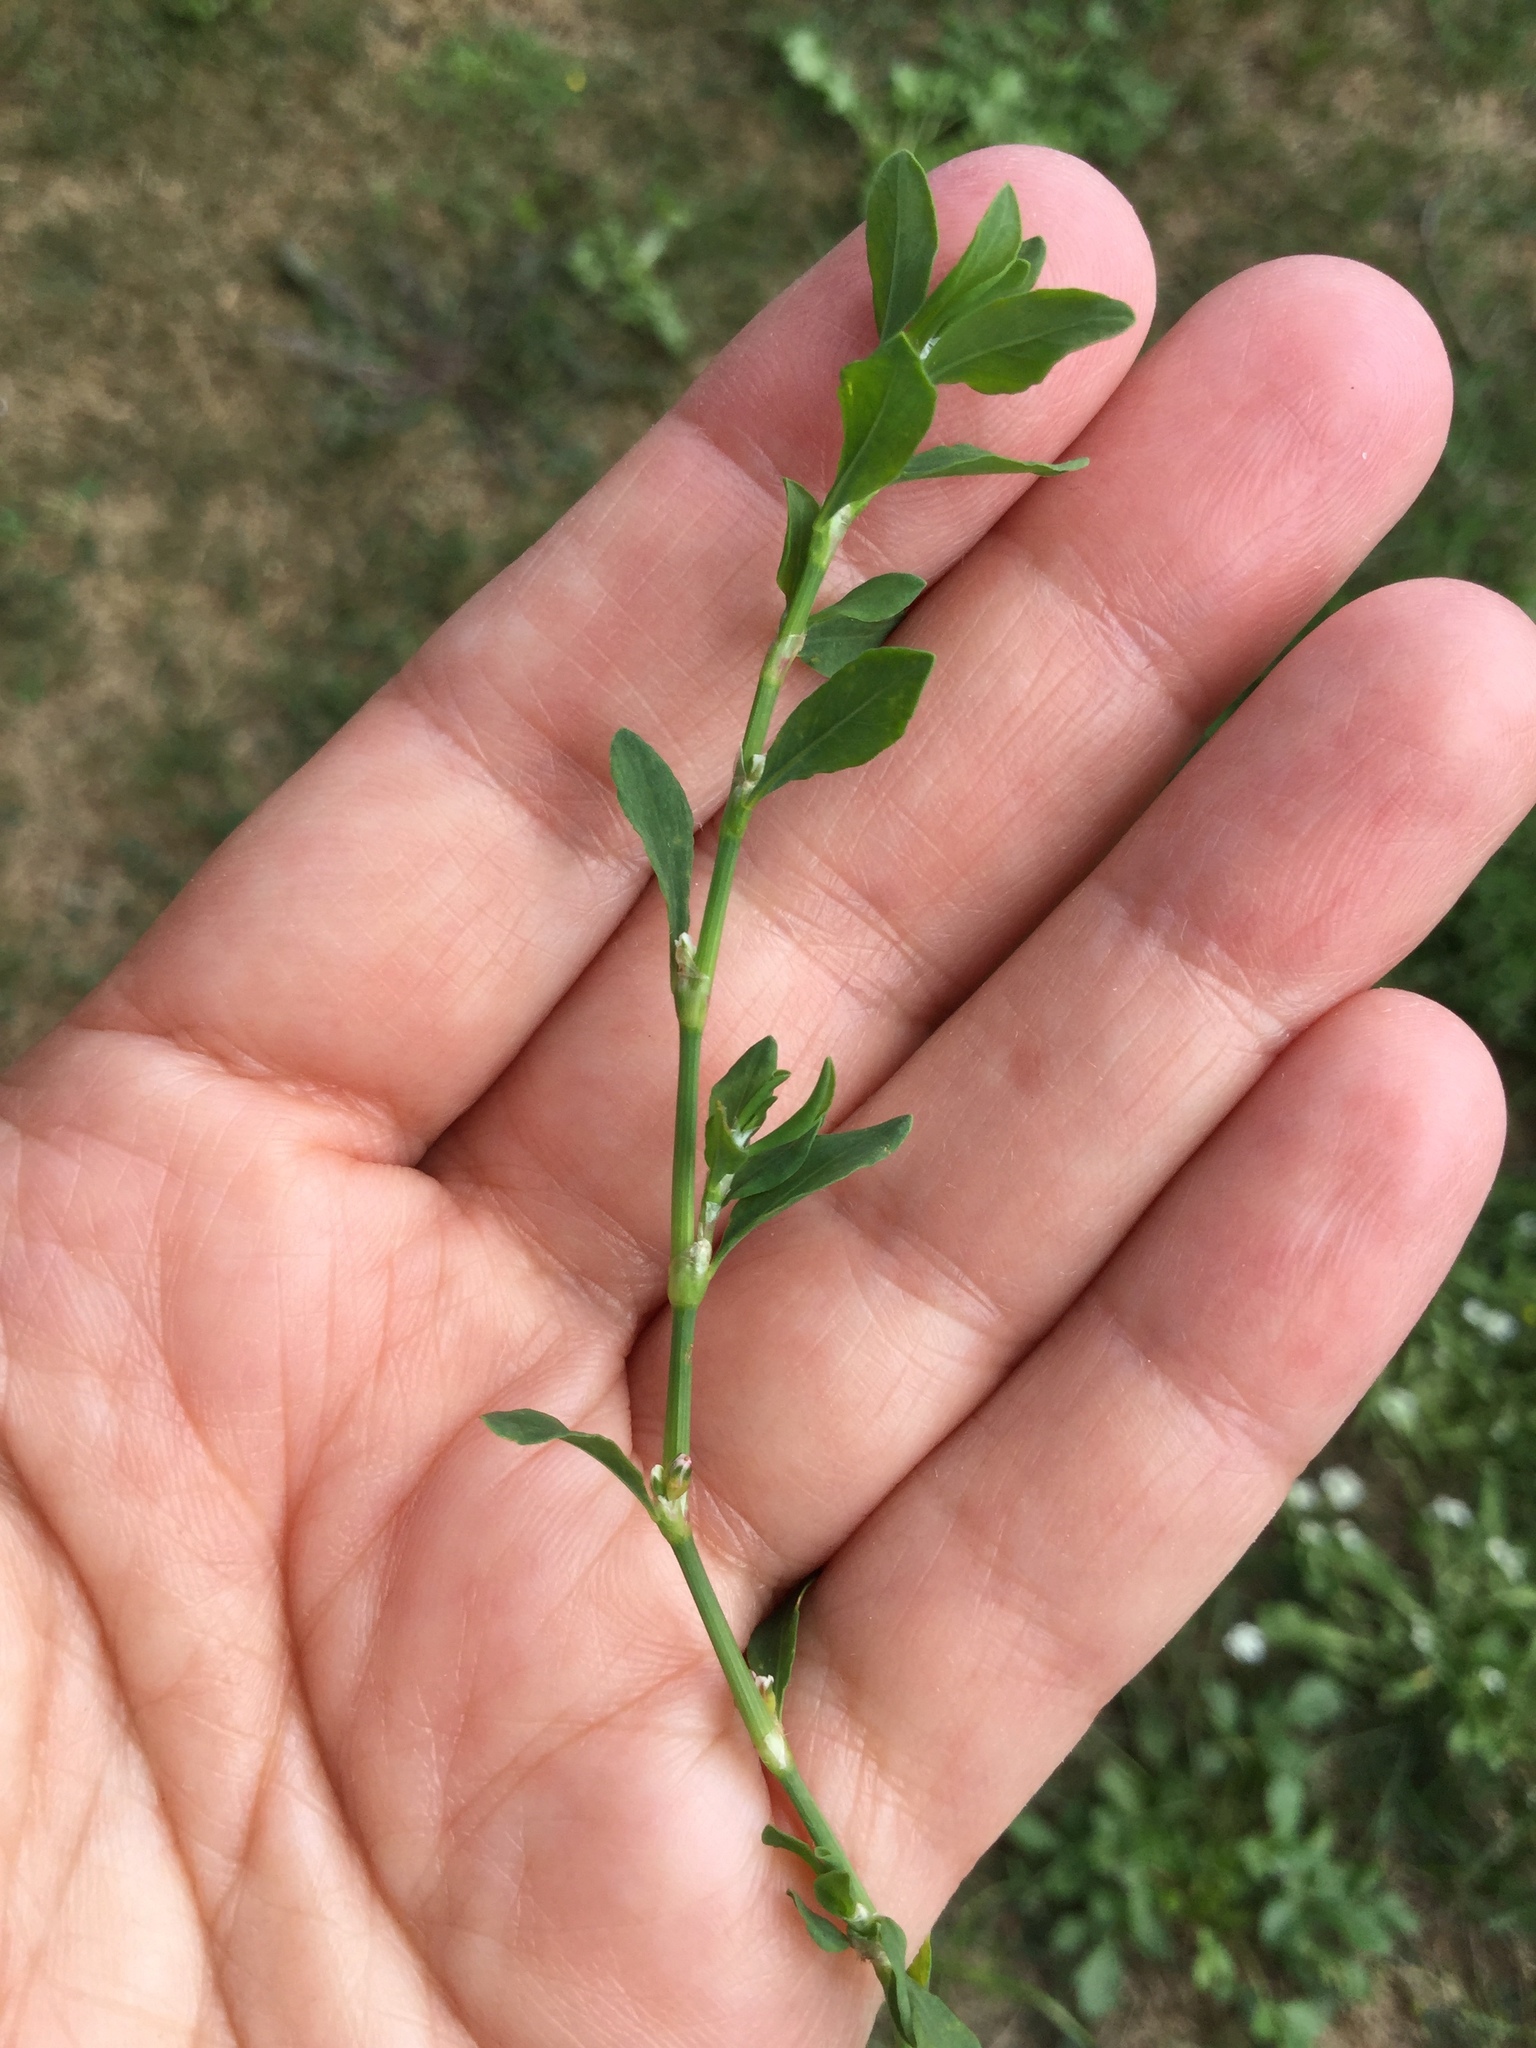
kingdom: Plantae
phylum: Tracheophyta
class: Magnoliopsida
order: Caryophyllales
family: Polygonaceae
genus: Polygonum
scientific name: Polygonum aviculare
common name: Prostrate knotweed
